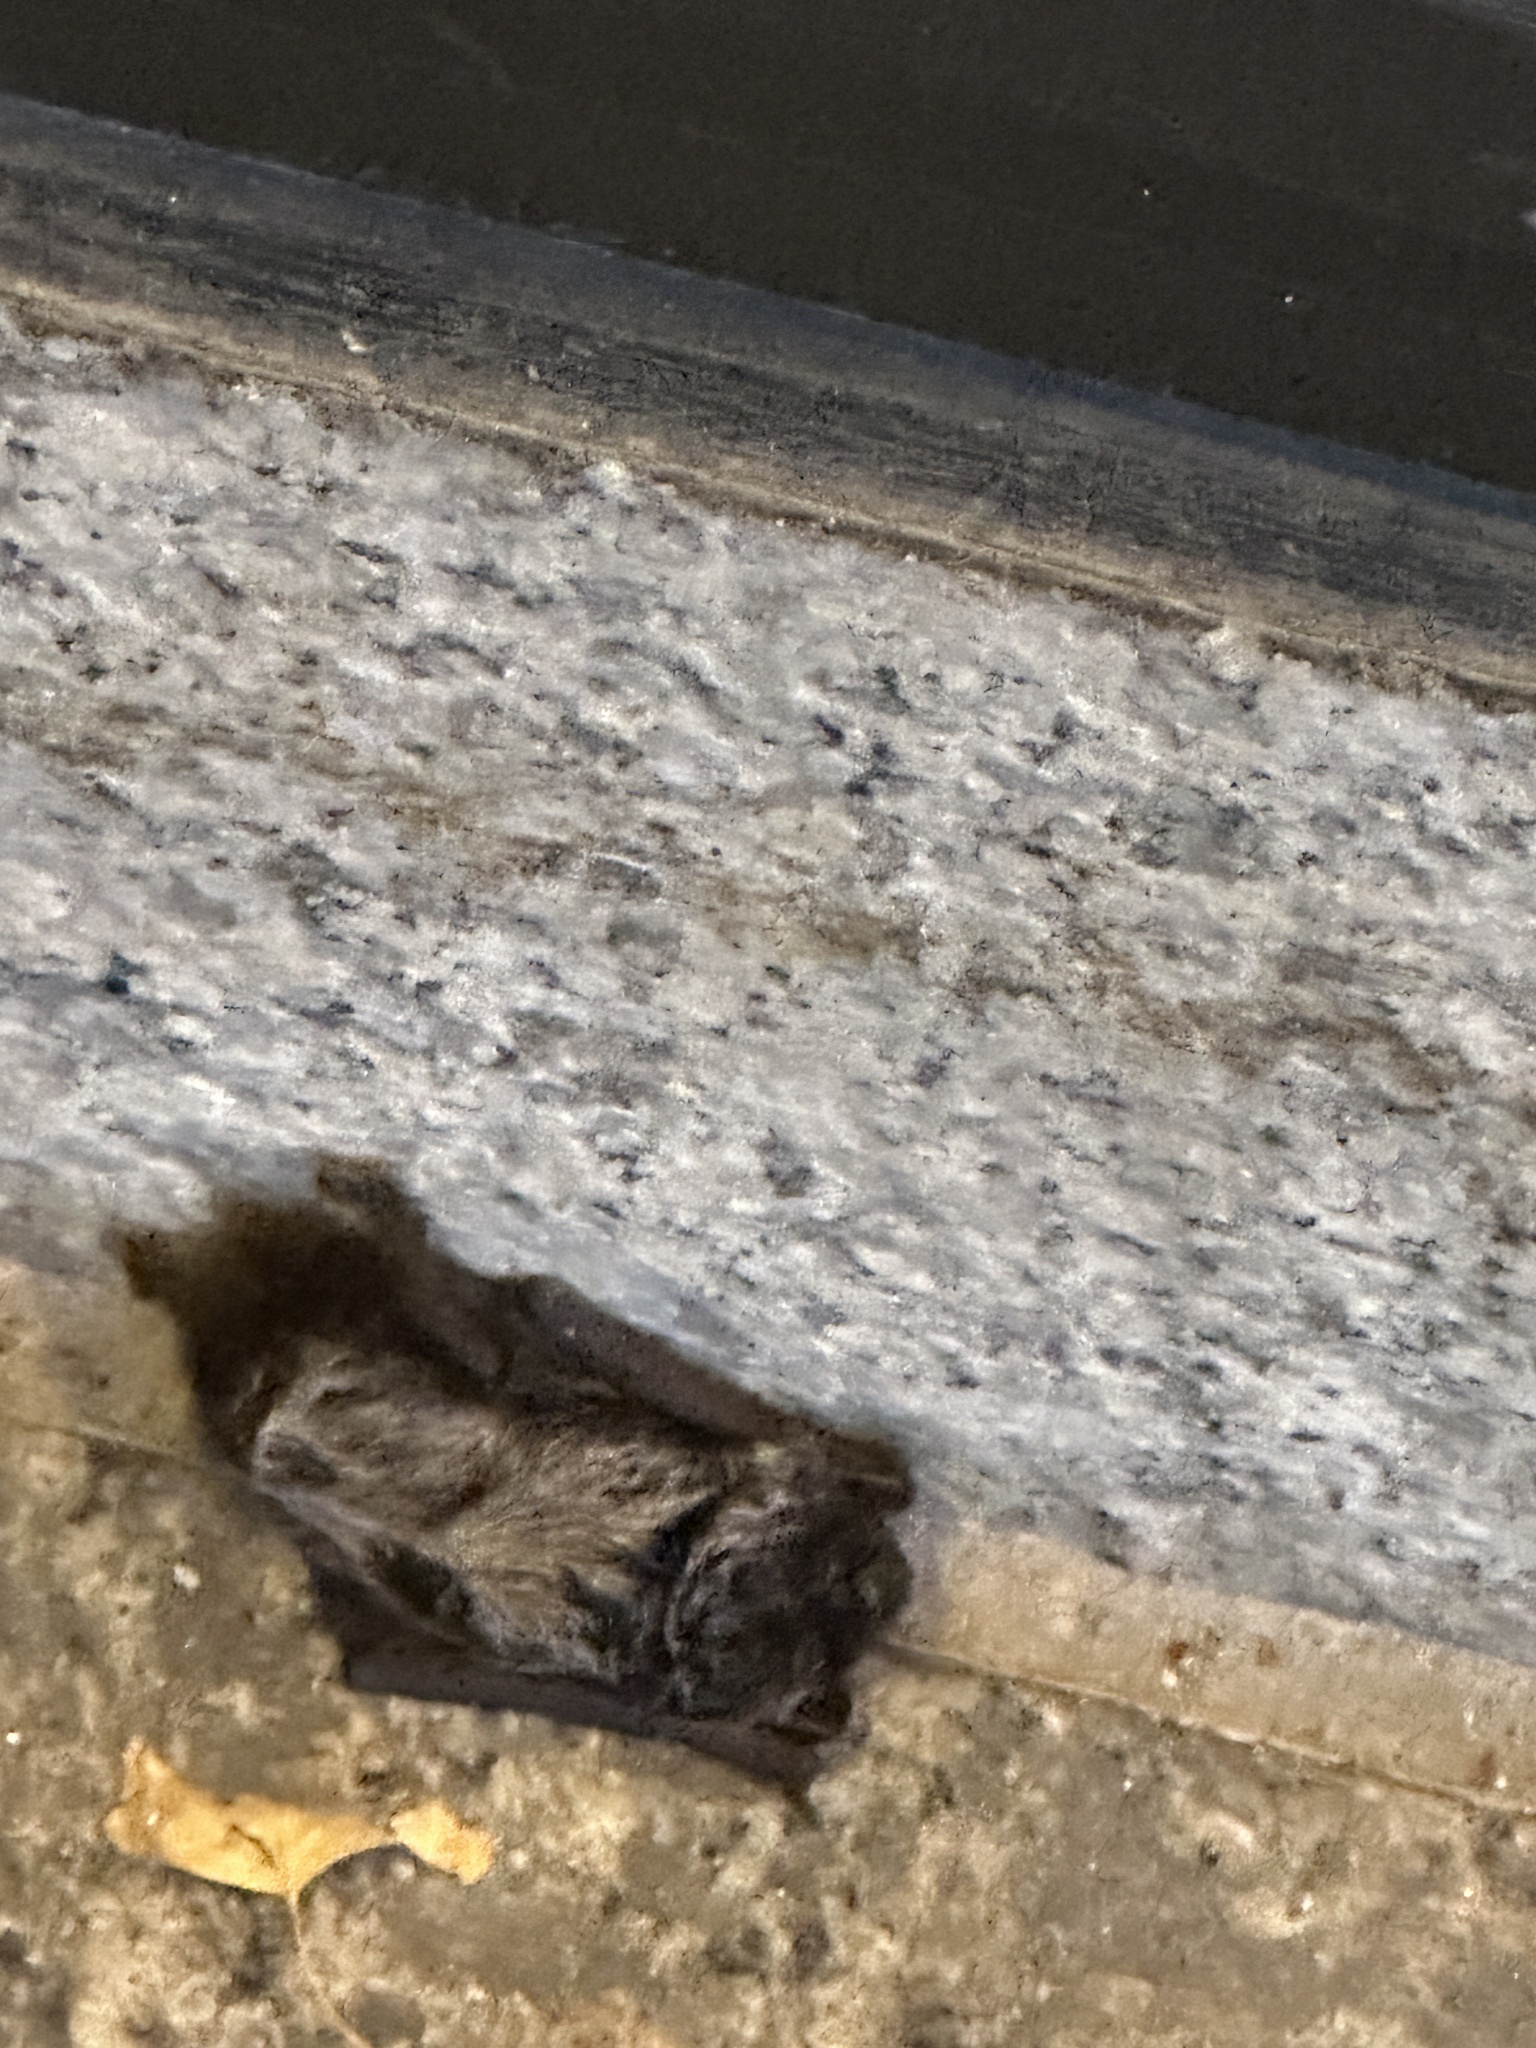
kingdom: Animalia
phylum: Chordata
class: Mammalia
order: Chiroptera
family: Vespertilionidae
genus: Lasionycteris
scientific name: Lasionycteris noctivagans
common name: Silver-haired bat
